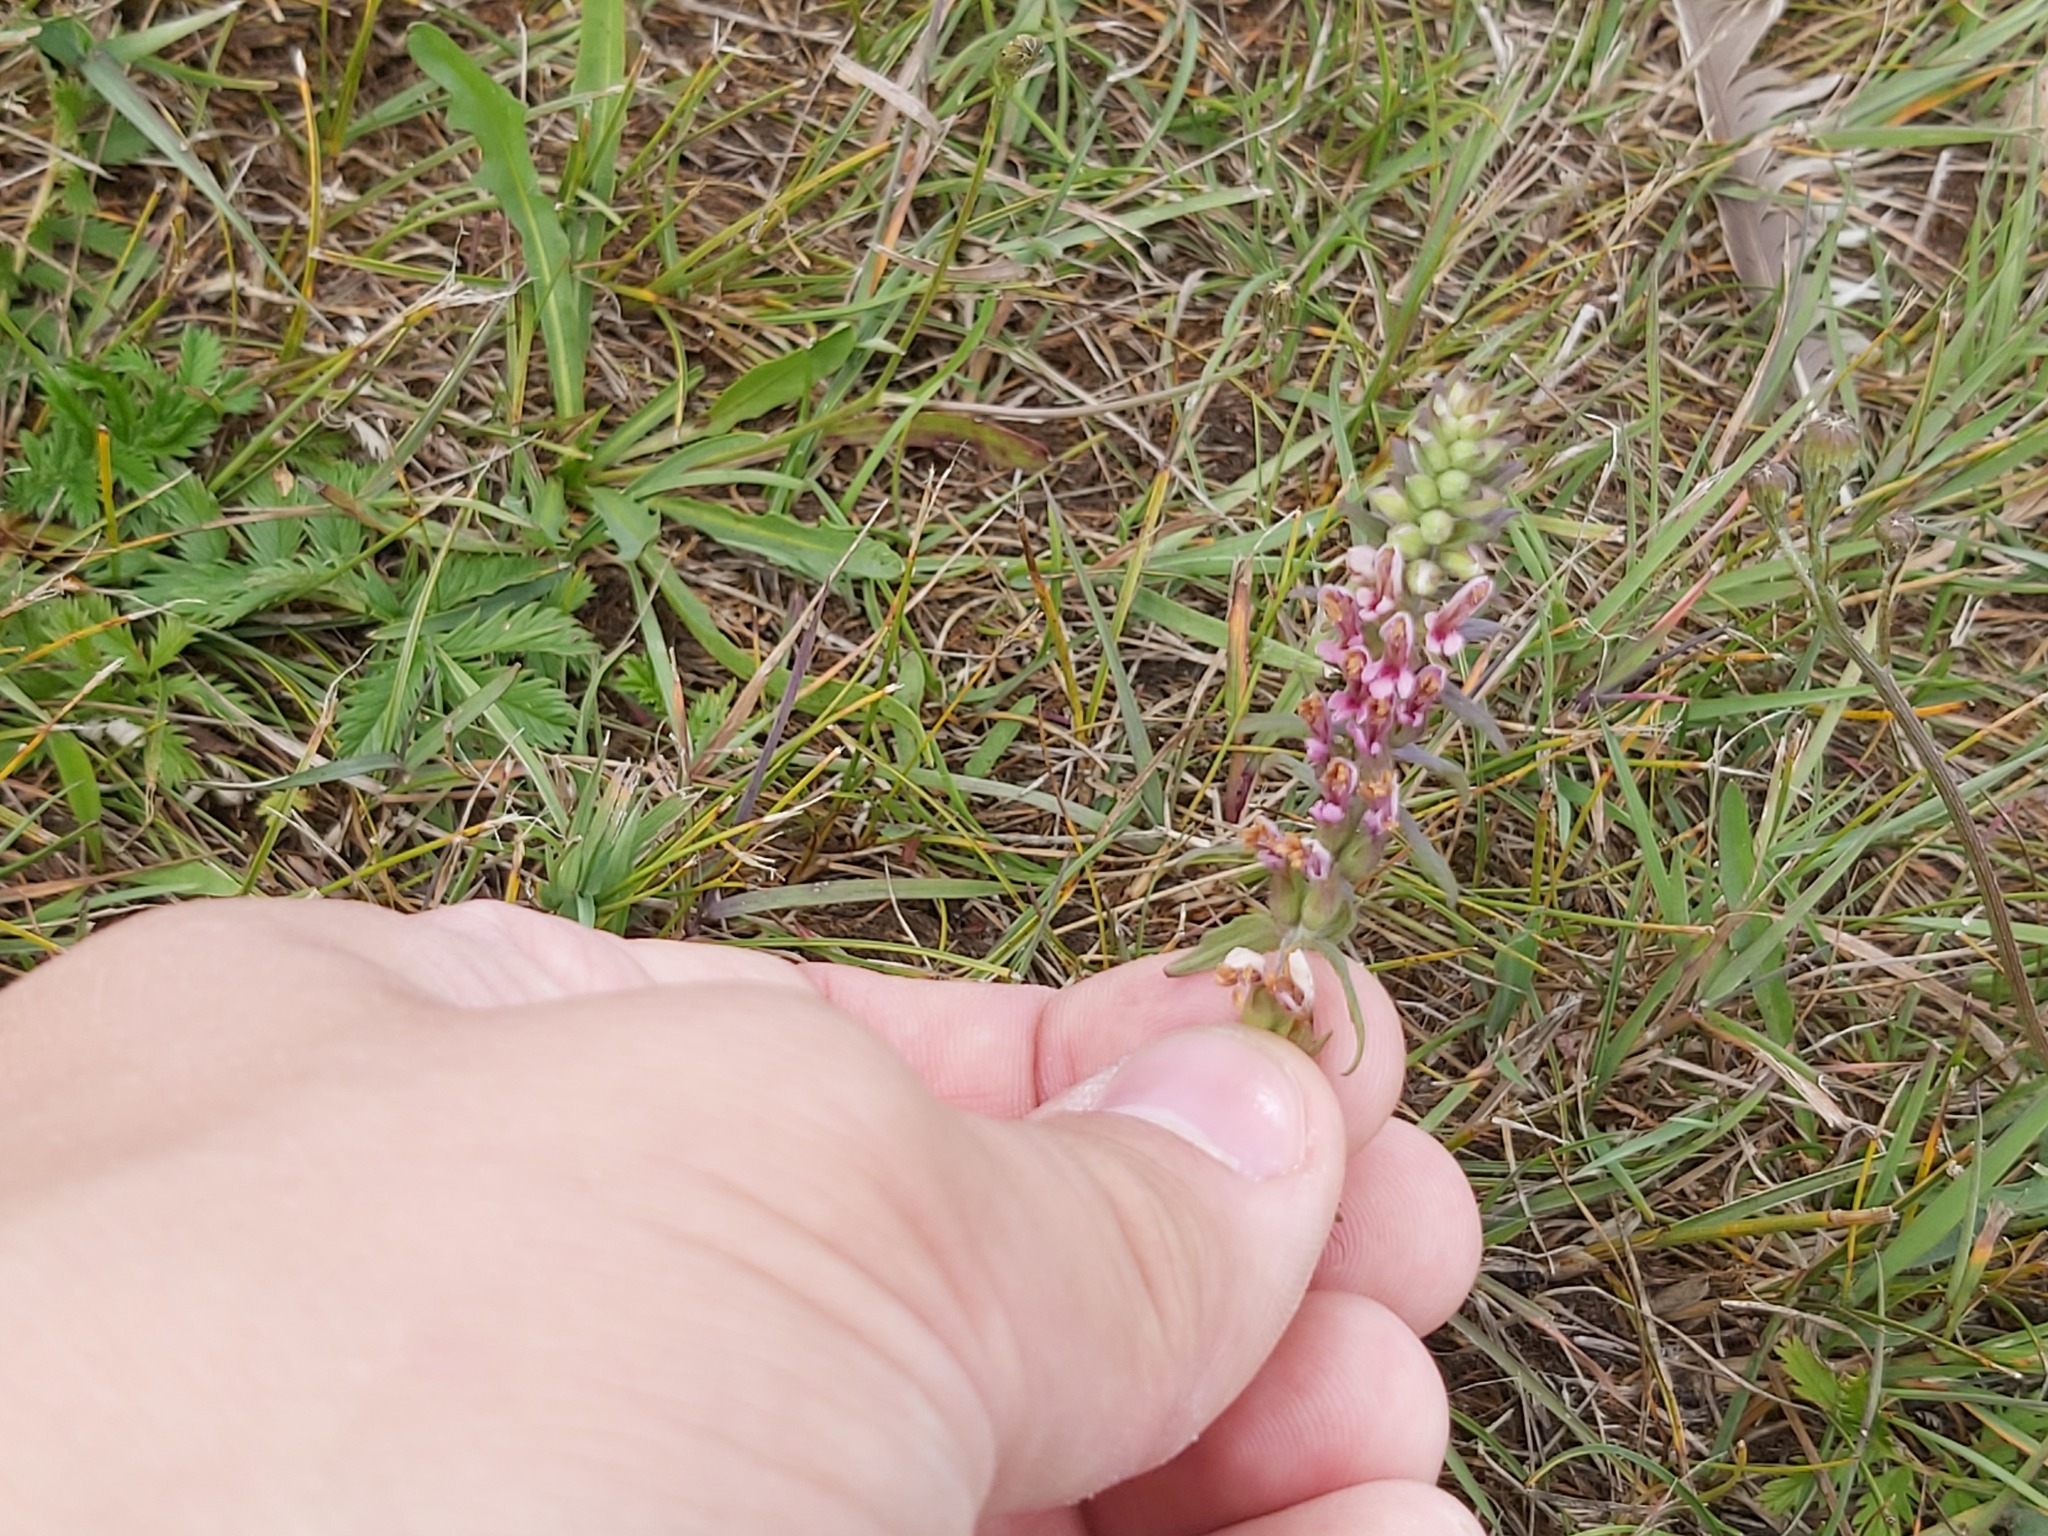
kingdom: Plantae
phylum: Tracheophyta
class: Magnoliopsida
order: Lamiales
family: Orobanchaceae
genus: Odontites
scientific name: Odontites vulgaris
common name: Broomrape
